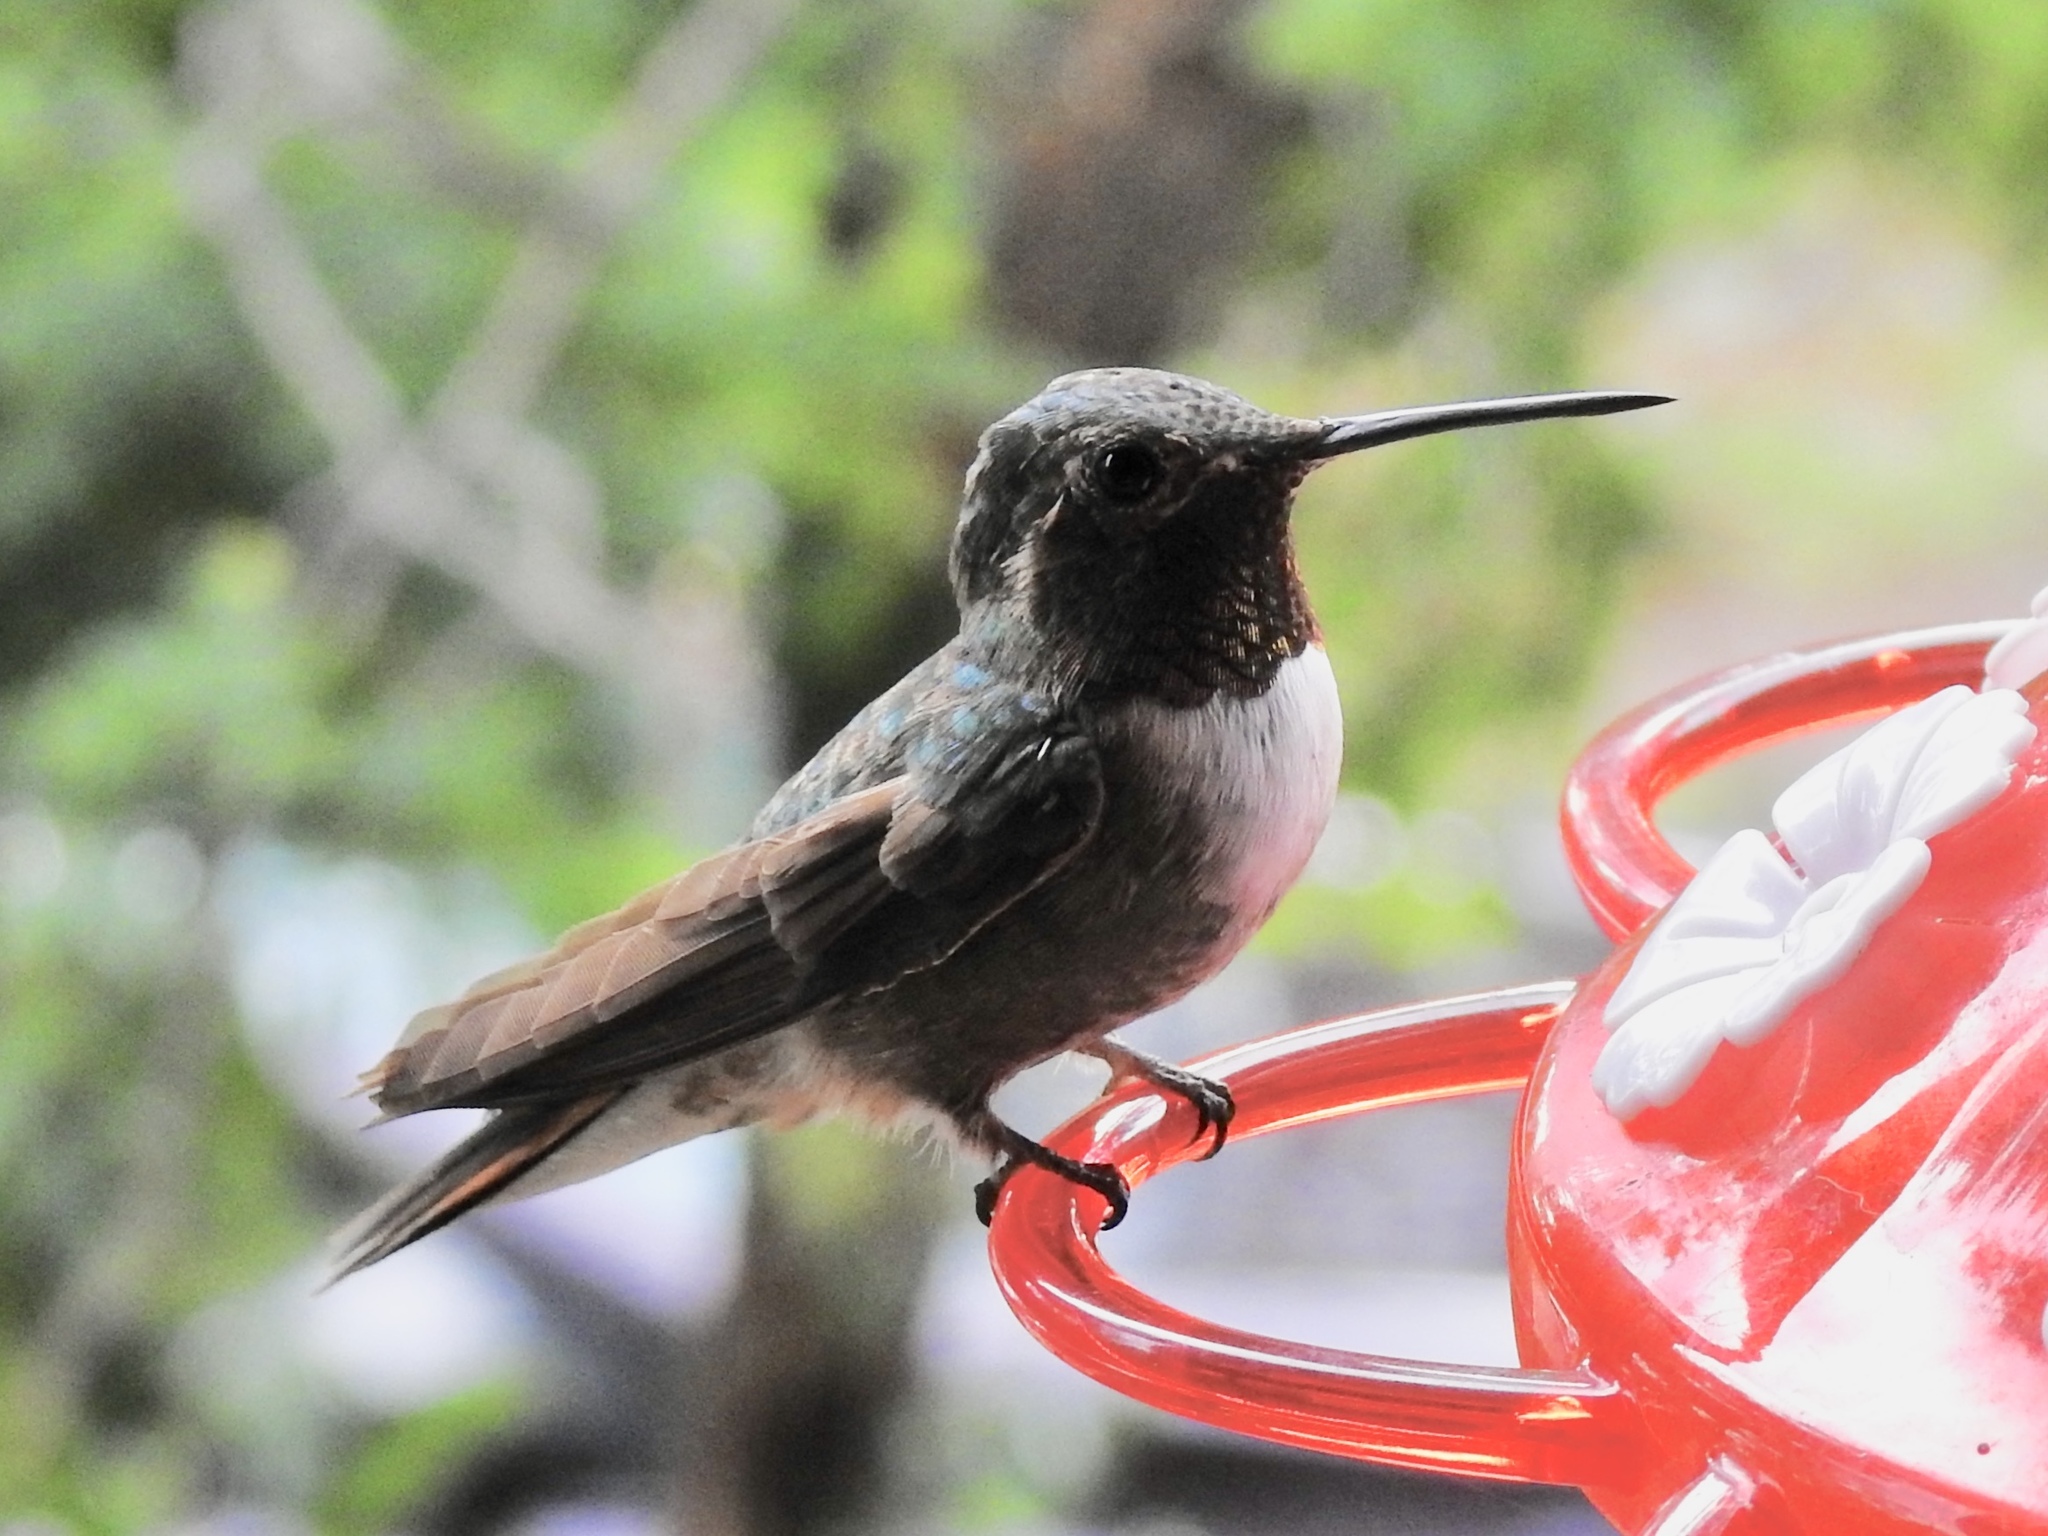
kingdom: Animalia
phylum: Chordata
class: Aves
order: Apodiformes
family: Trochilidae
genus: Selasphorus
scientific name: Selasphorus platycercus
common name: Broad-tailed hummingbird
